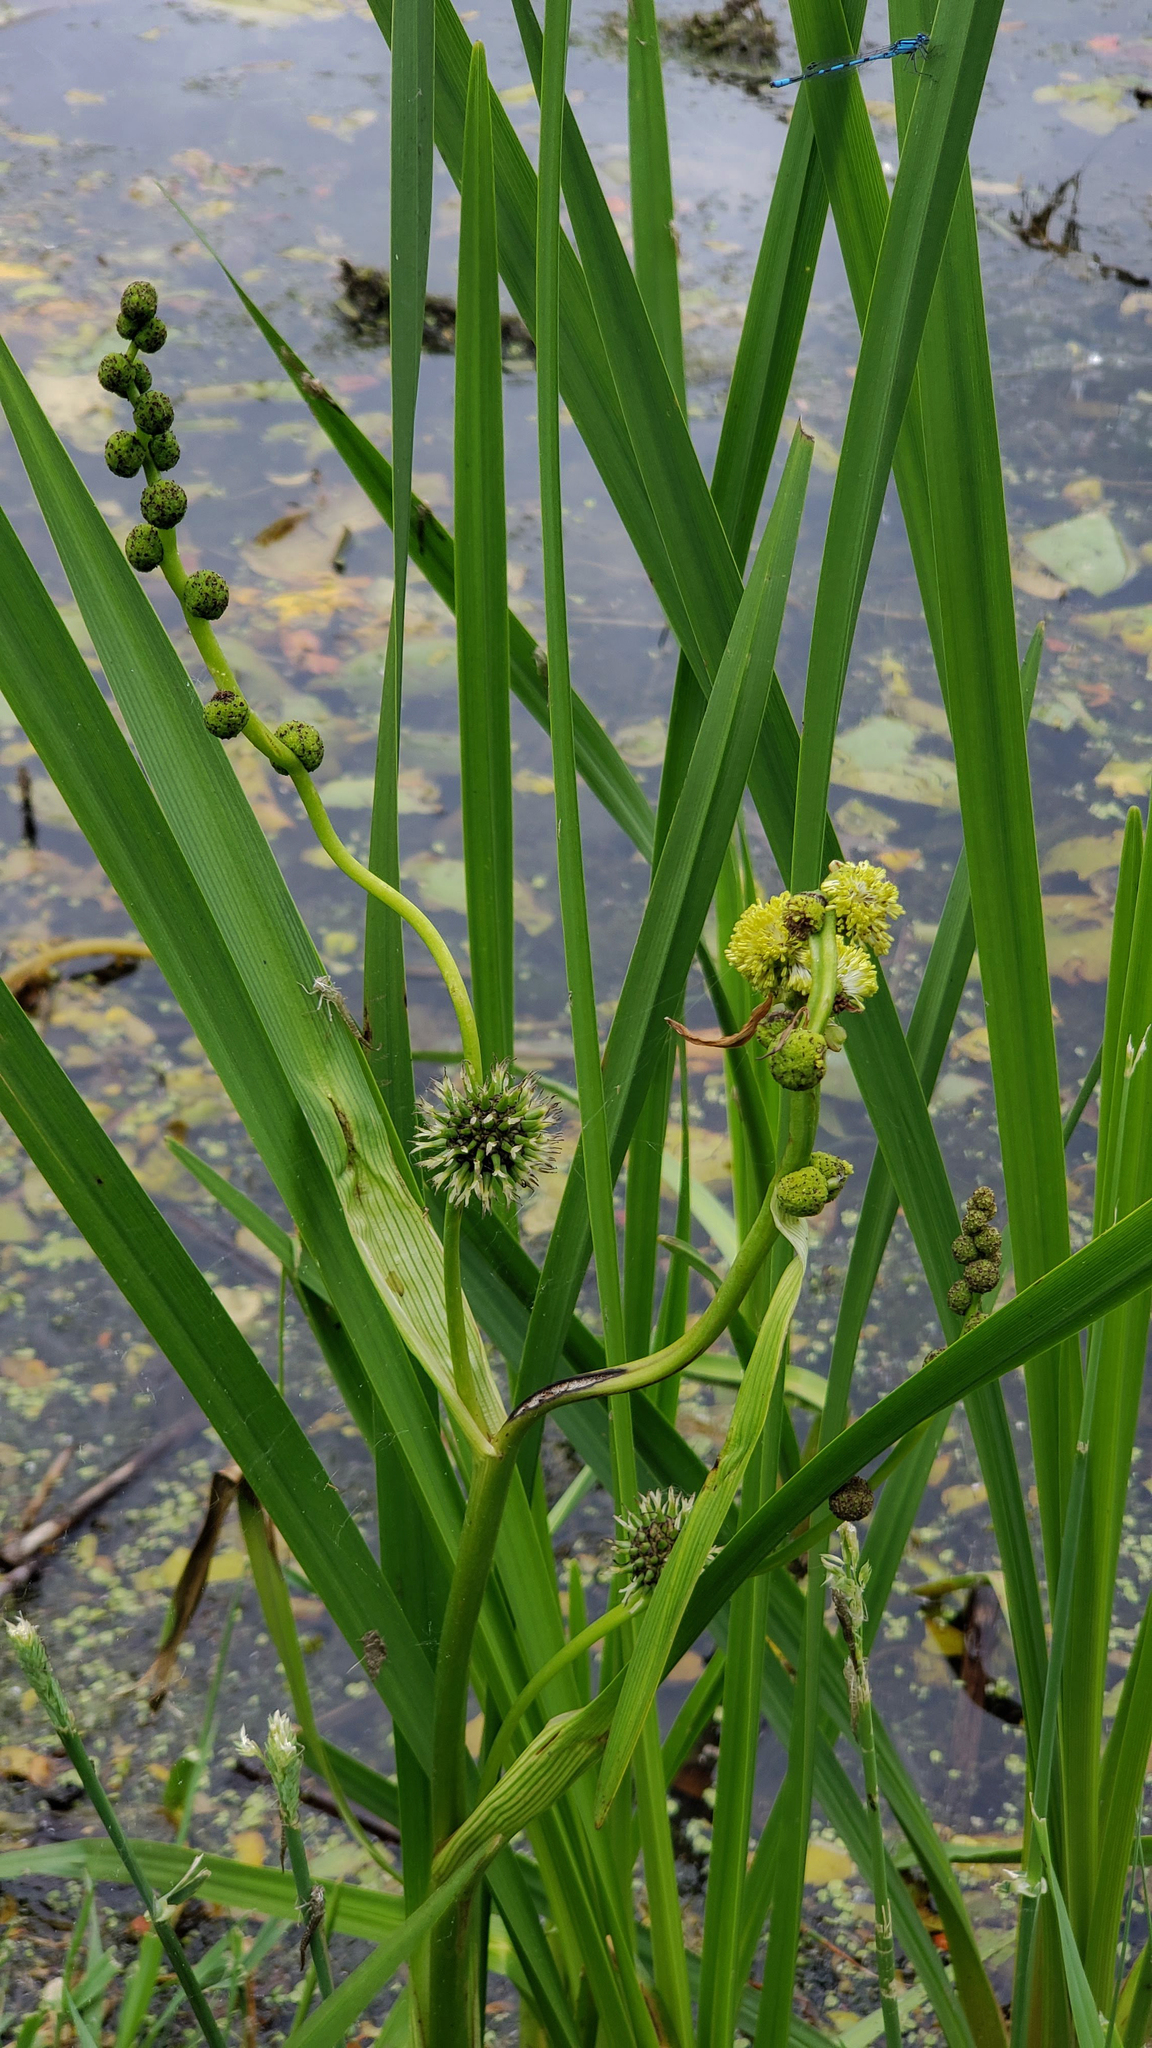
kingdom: Plantae
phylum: Tracheophyta
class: Liliopsida
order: Poales
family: Typhaceae
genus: Sparganium
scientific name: Sparganium eurycarpum
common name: Broad-fruited burreed
